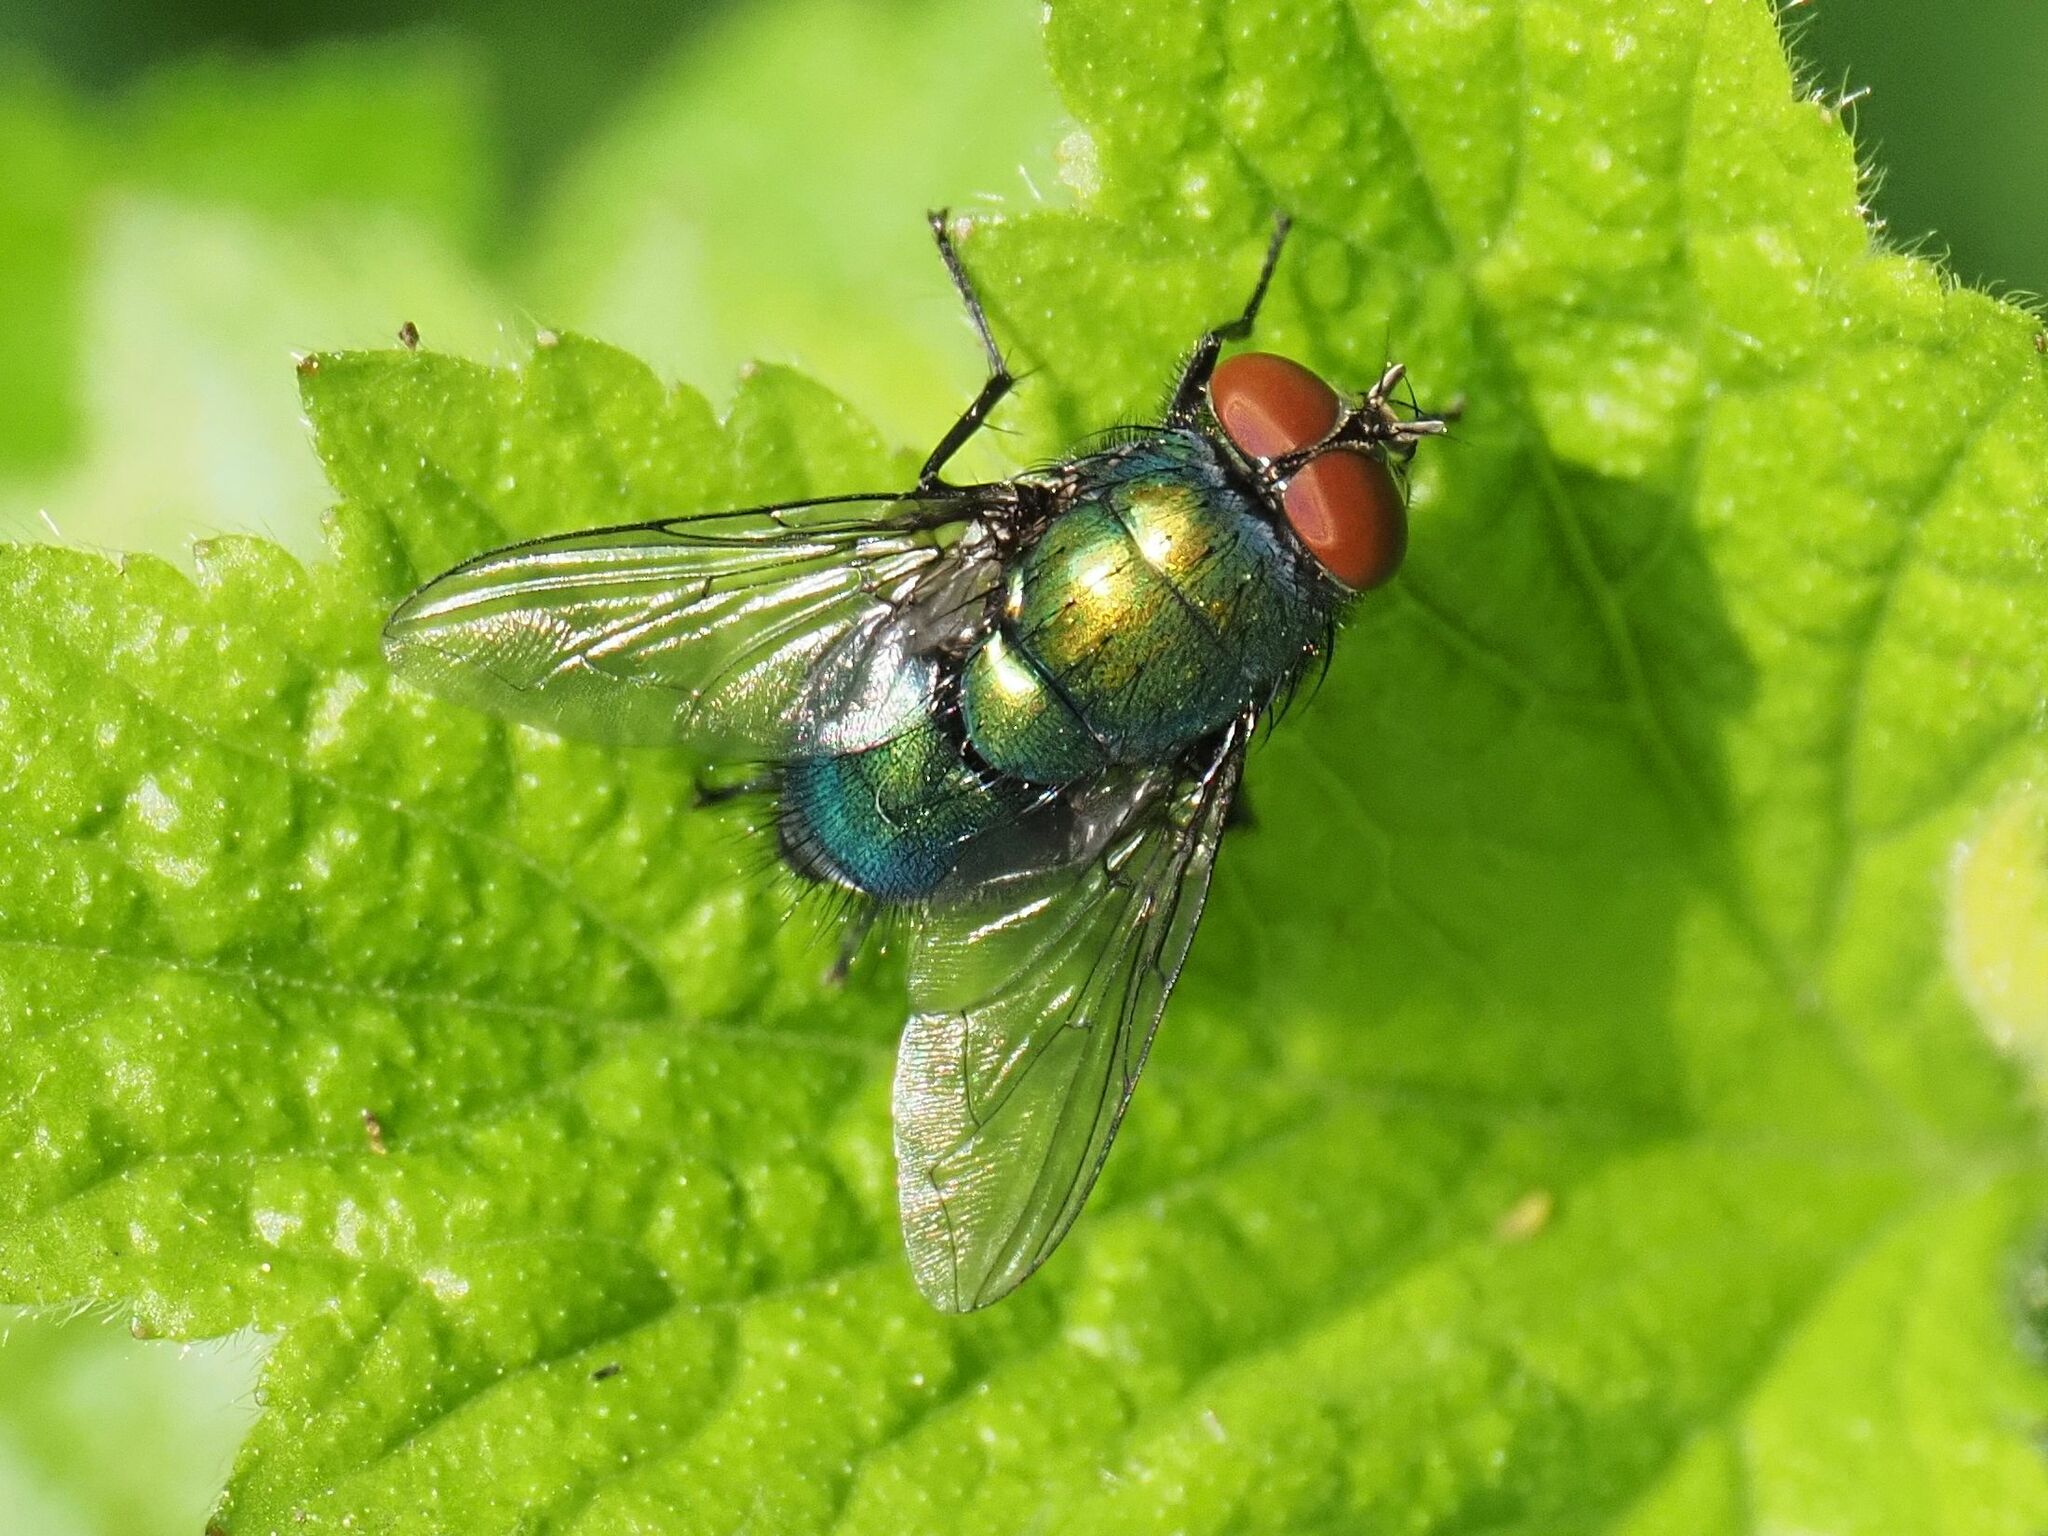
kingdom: Animalia
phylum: Arthropoda
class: Insecta
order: Diptera
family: Calliphoridae
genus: Lucilia
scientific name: Lucilia
